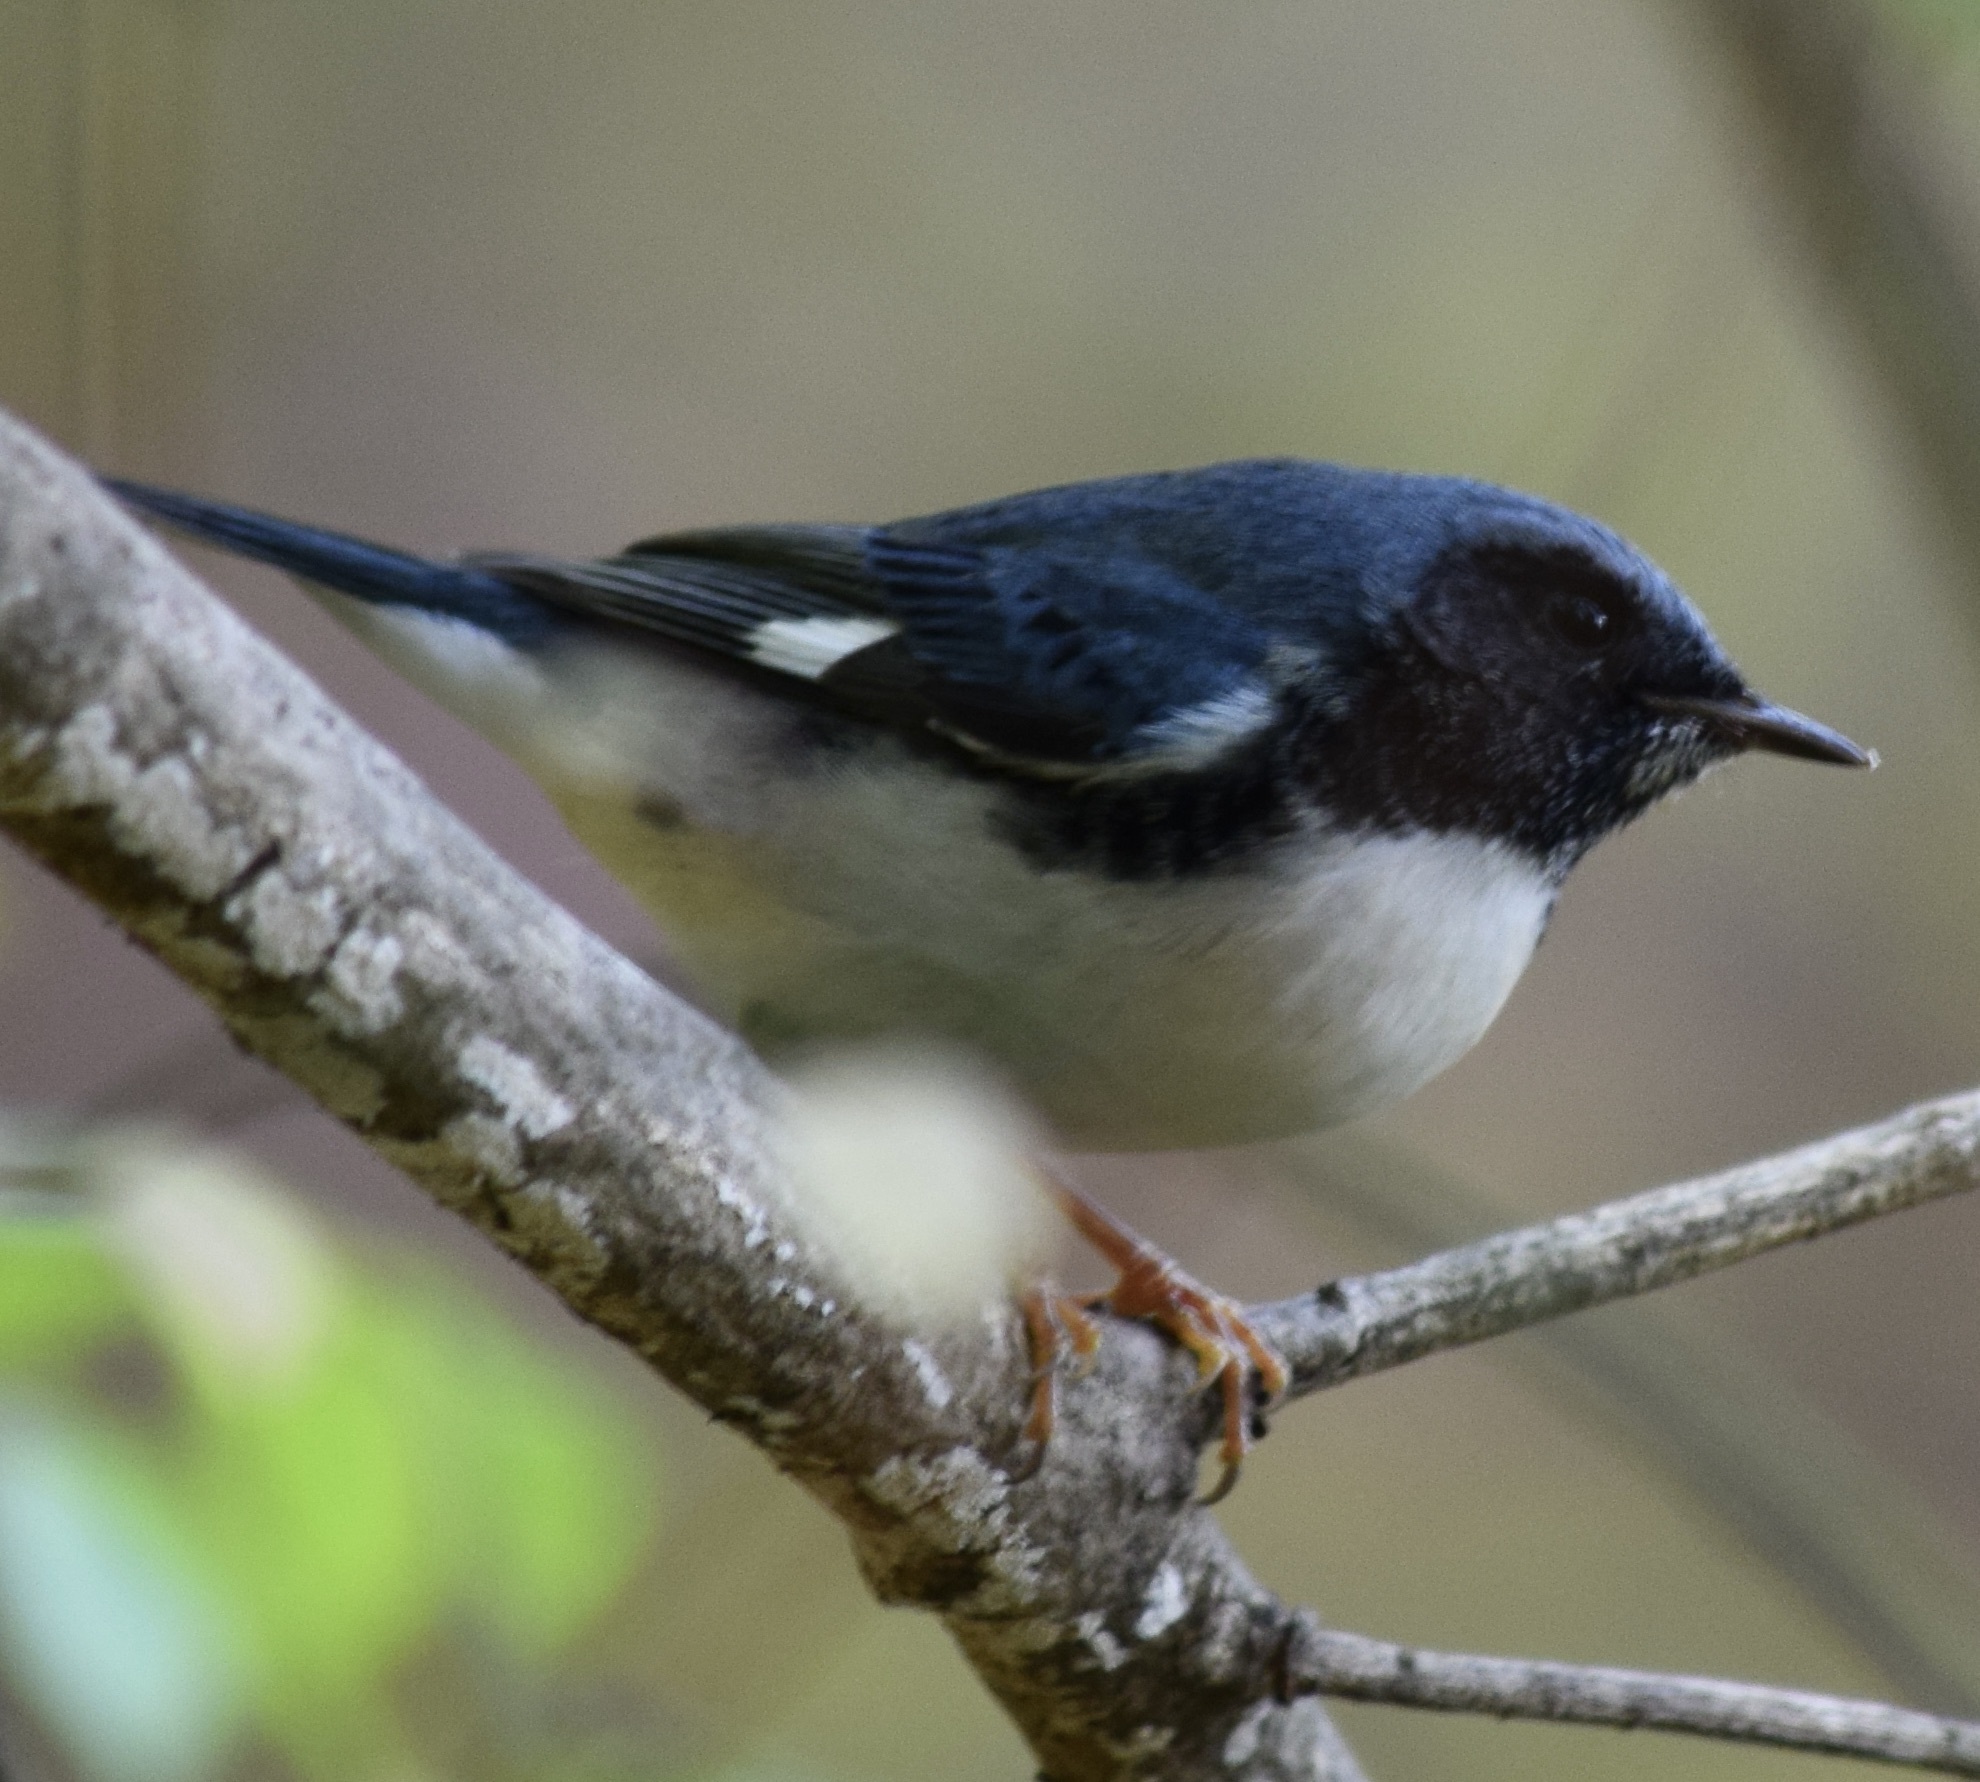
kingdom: Animalia
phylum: Chordata
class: Aves
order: Passeriformes
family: Parulidae
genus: Setophaga
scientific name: Setophaga caerulescens
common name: Black-throated blue warbler
